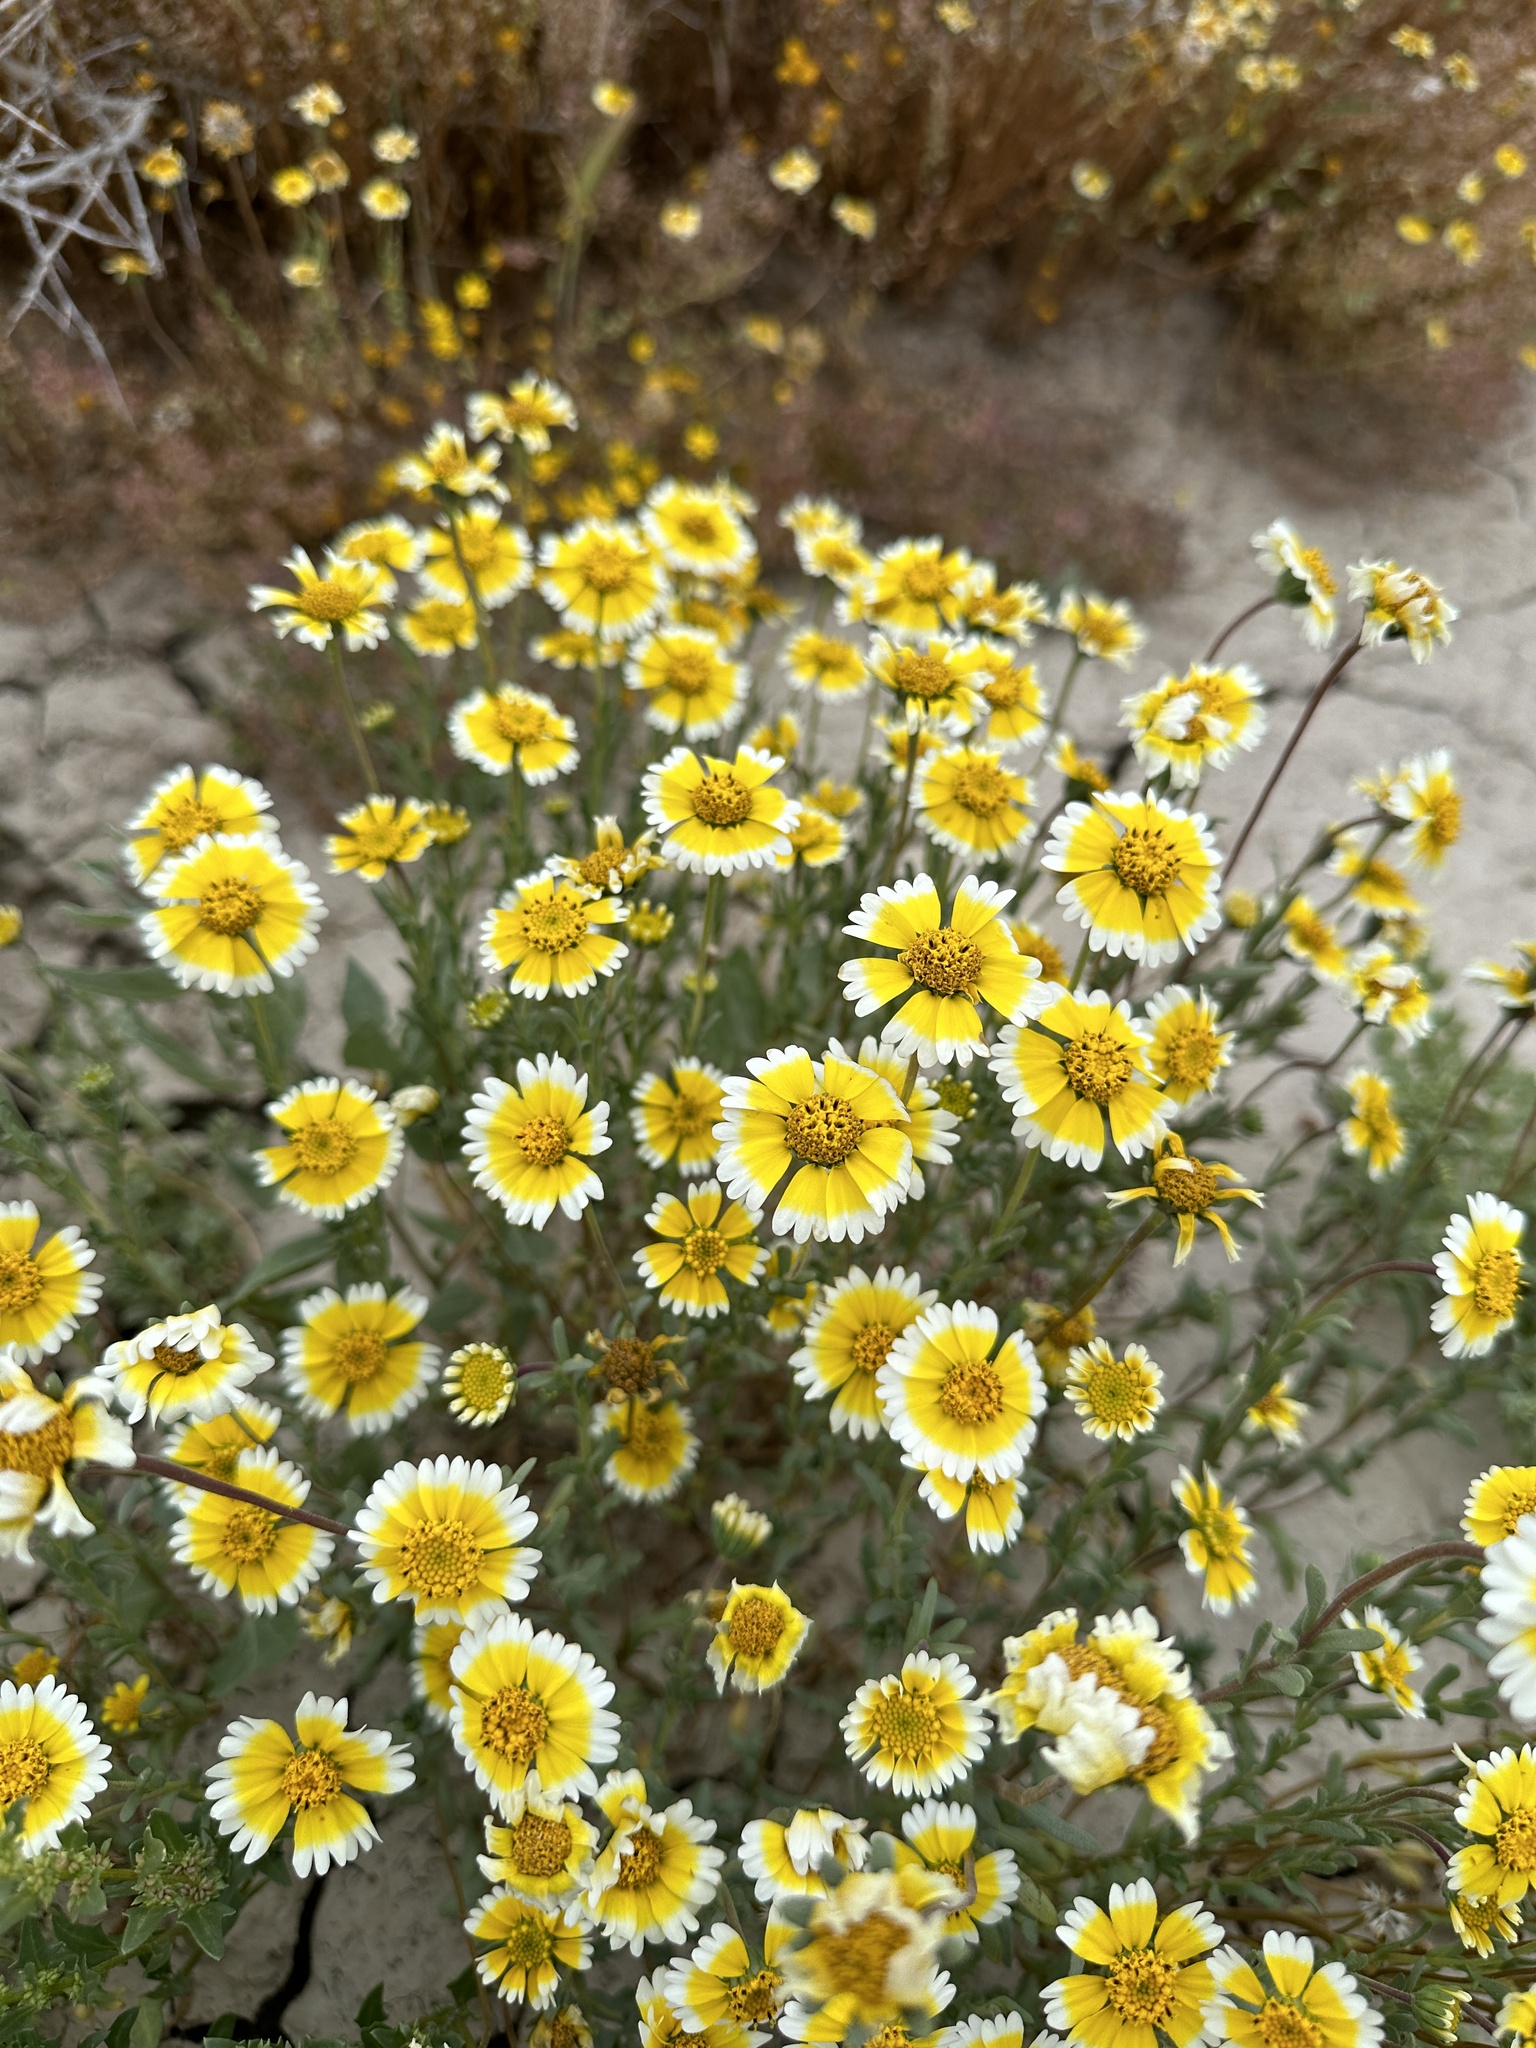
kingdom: Plantae
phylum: Tracheophyta
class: Magnoliopsida
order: Asterales
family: Asteraceae
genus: Layia
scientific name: Layia munzii
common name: Munz's tidy-tips
